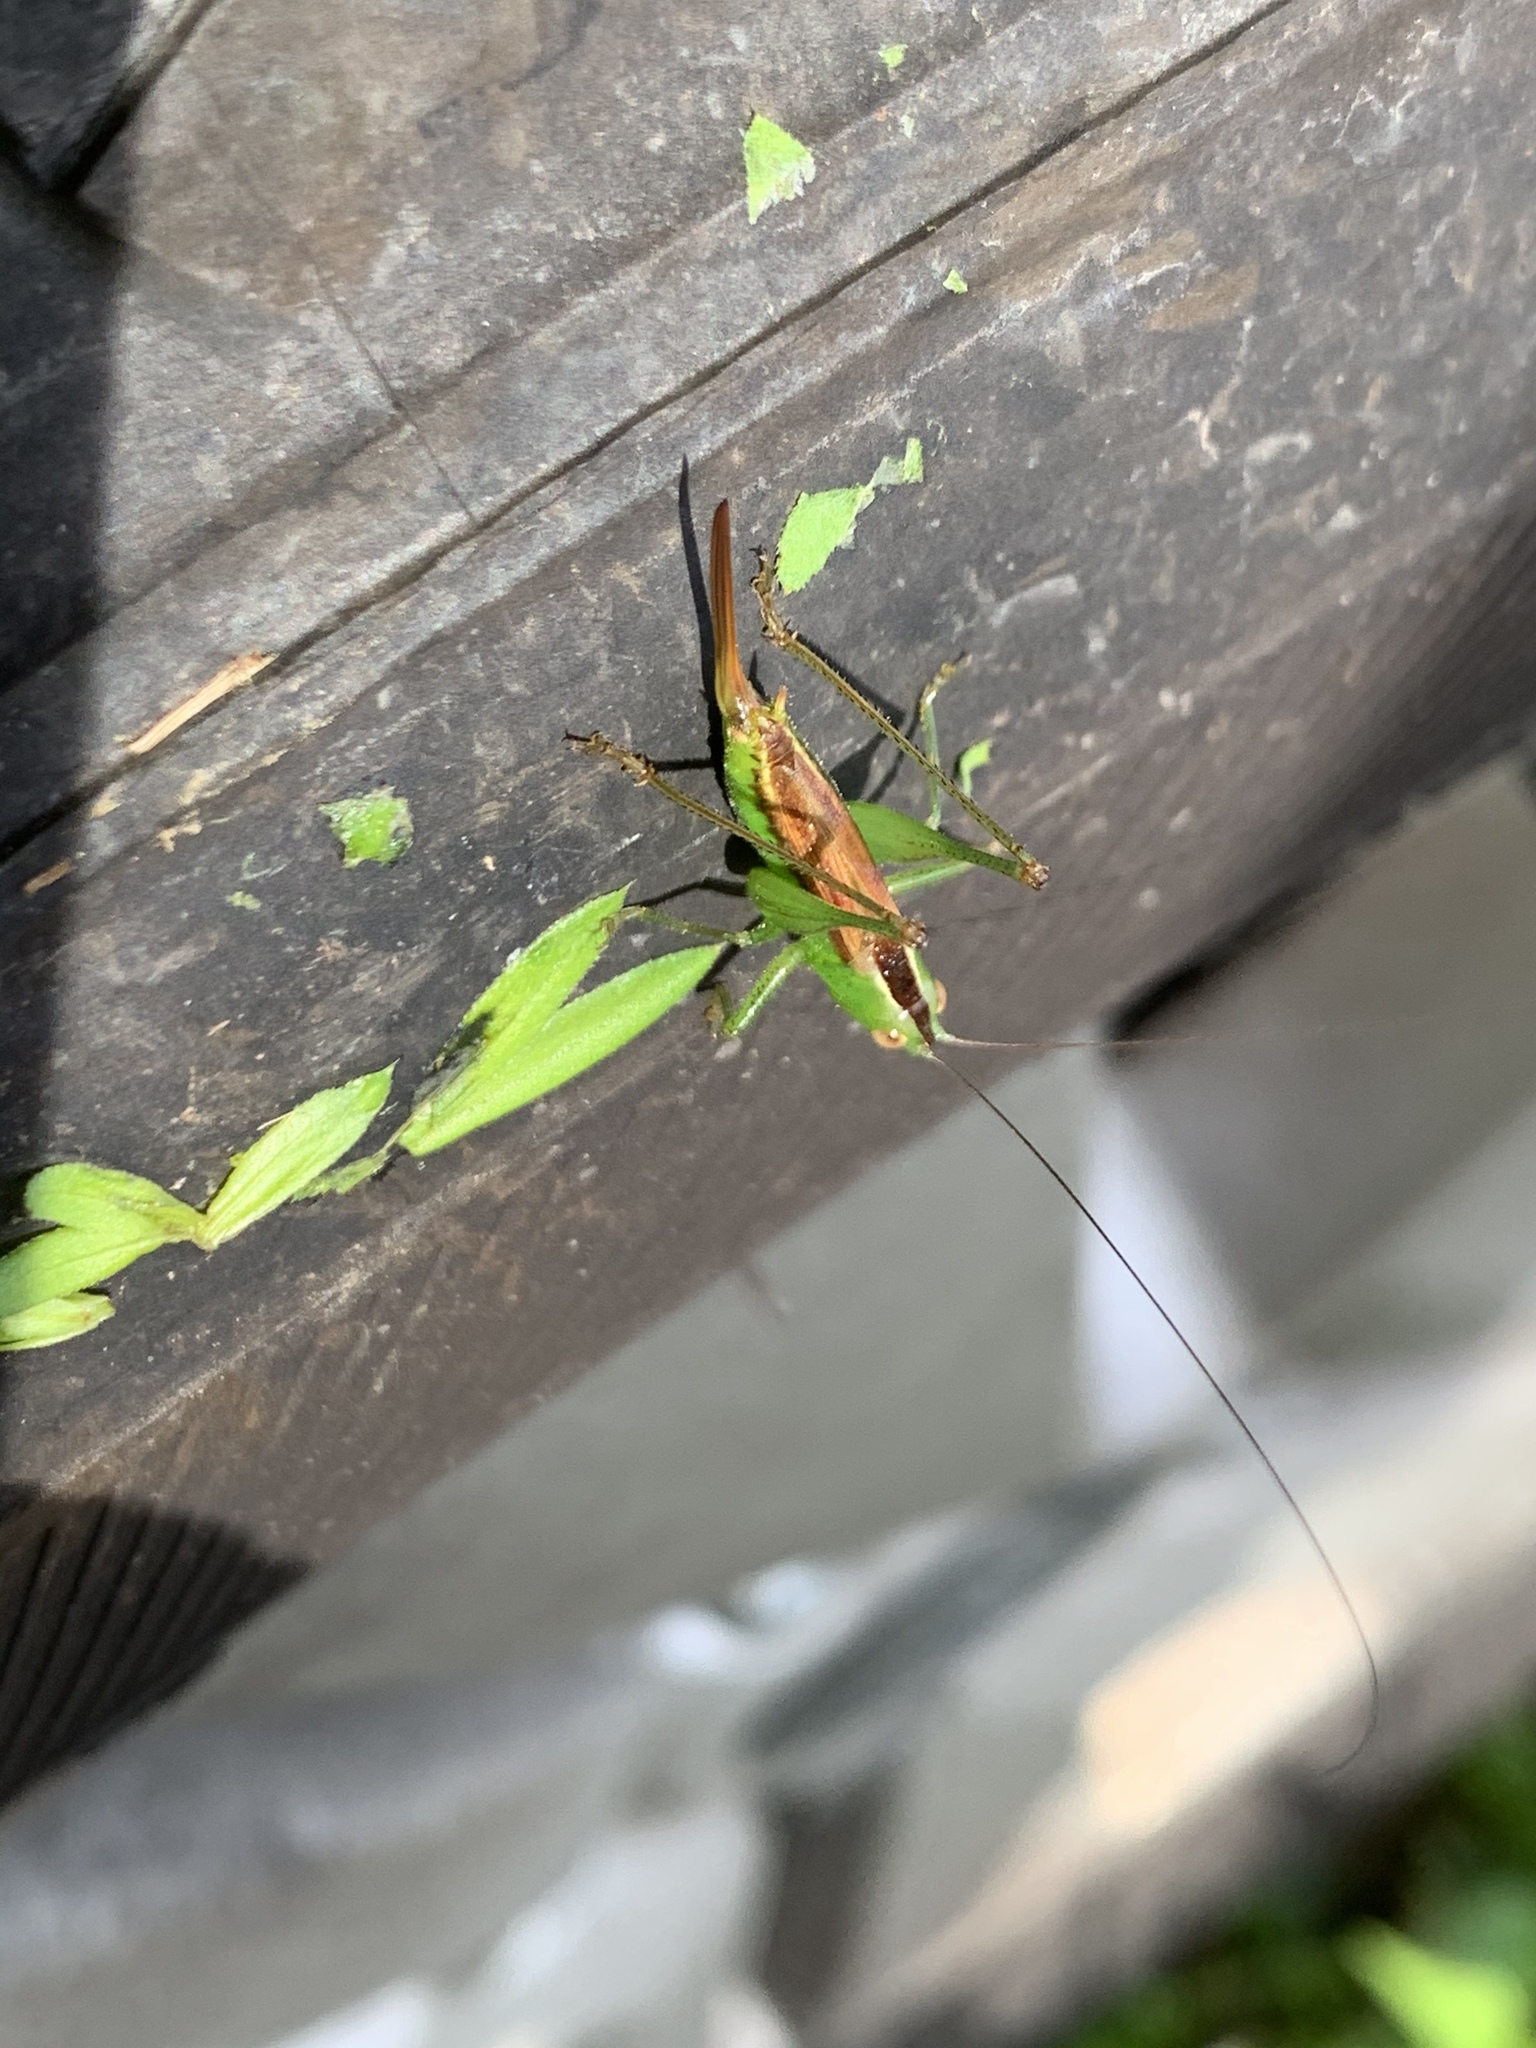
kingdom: Animalia
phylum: Arthropoda
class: Insecta
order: Orthoptera
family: Tettigoniidae
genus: Conocephalus
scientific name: Conocephalus brevipennis
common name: Short-winged meadow katydid
